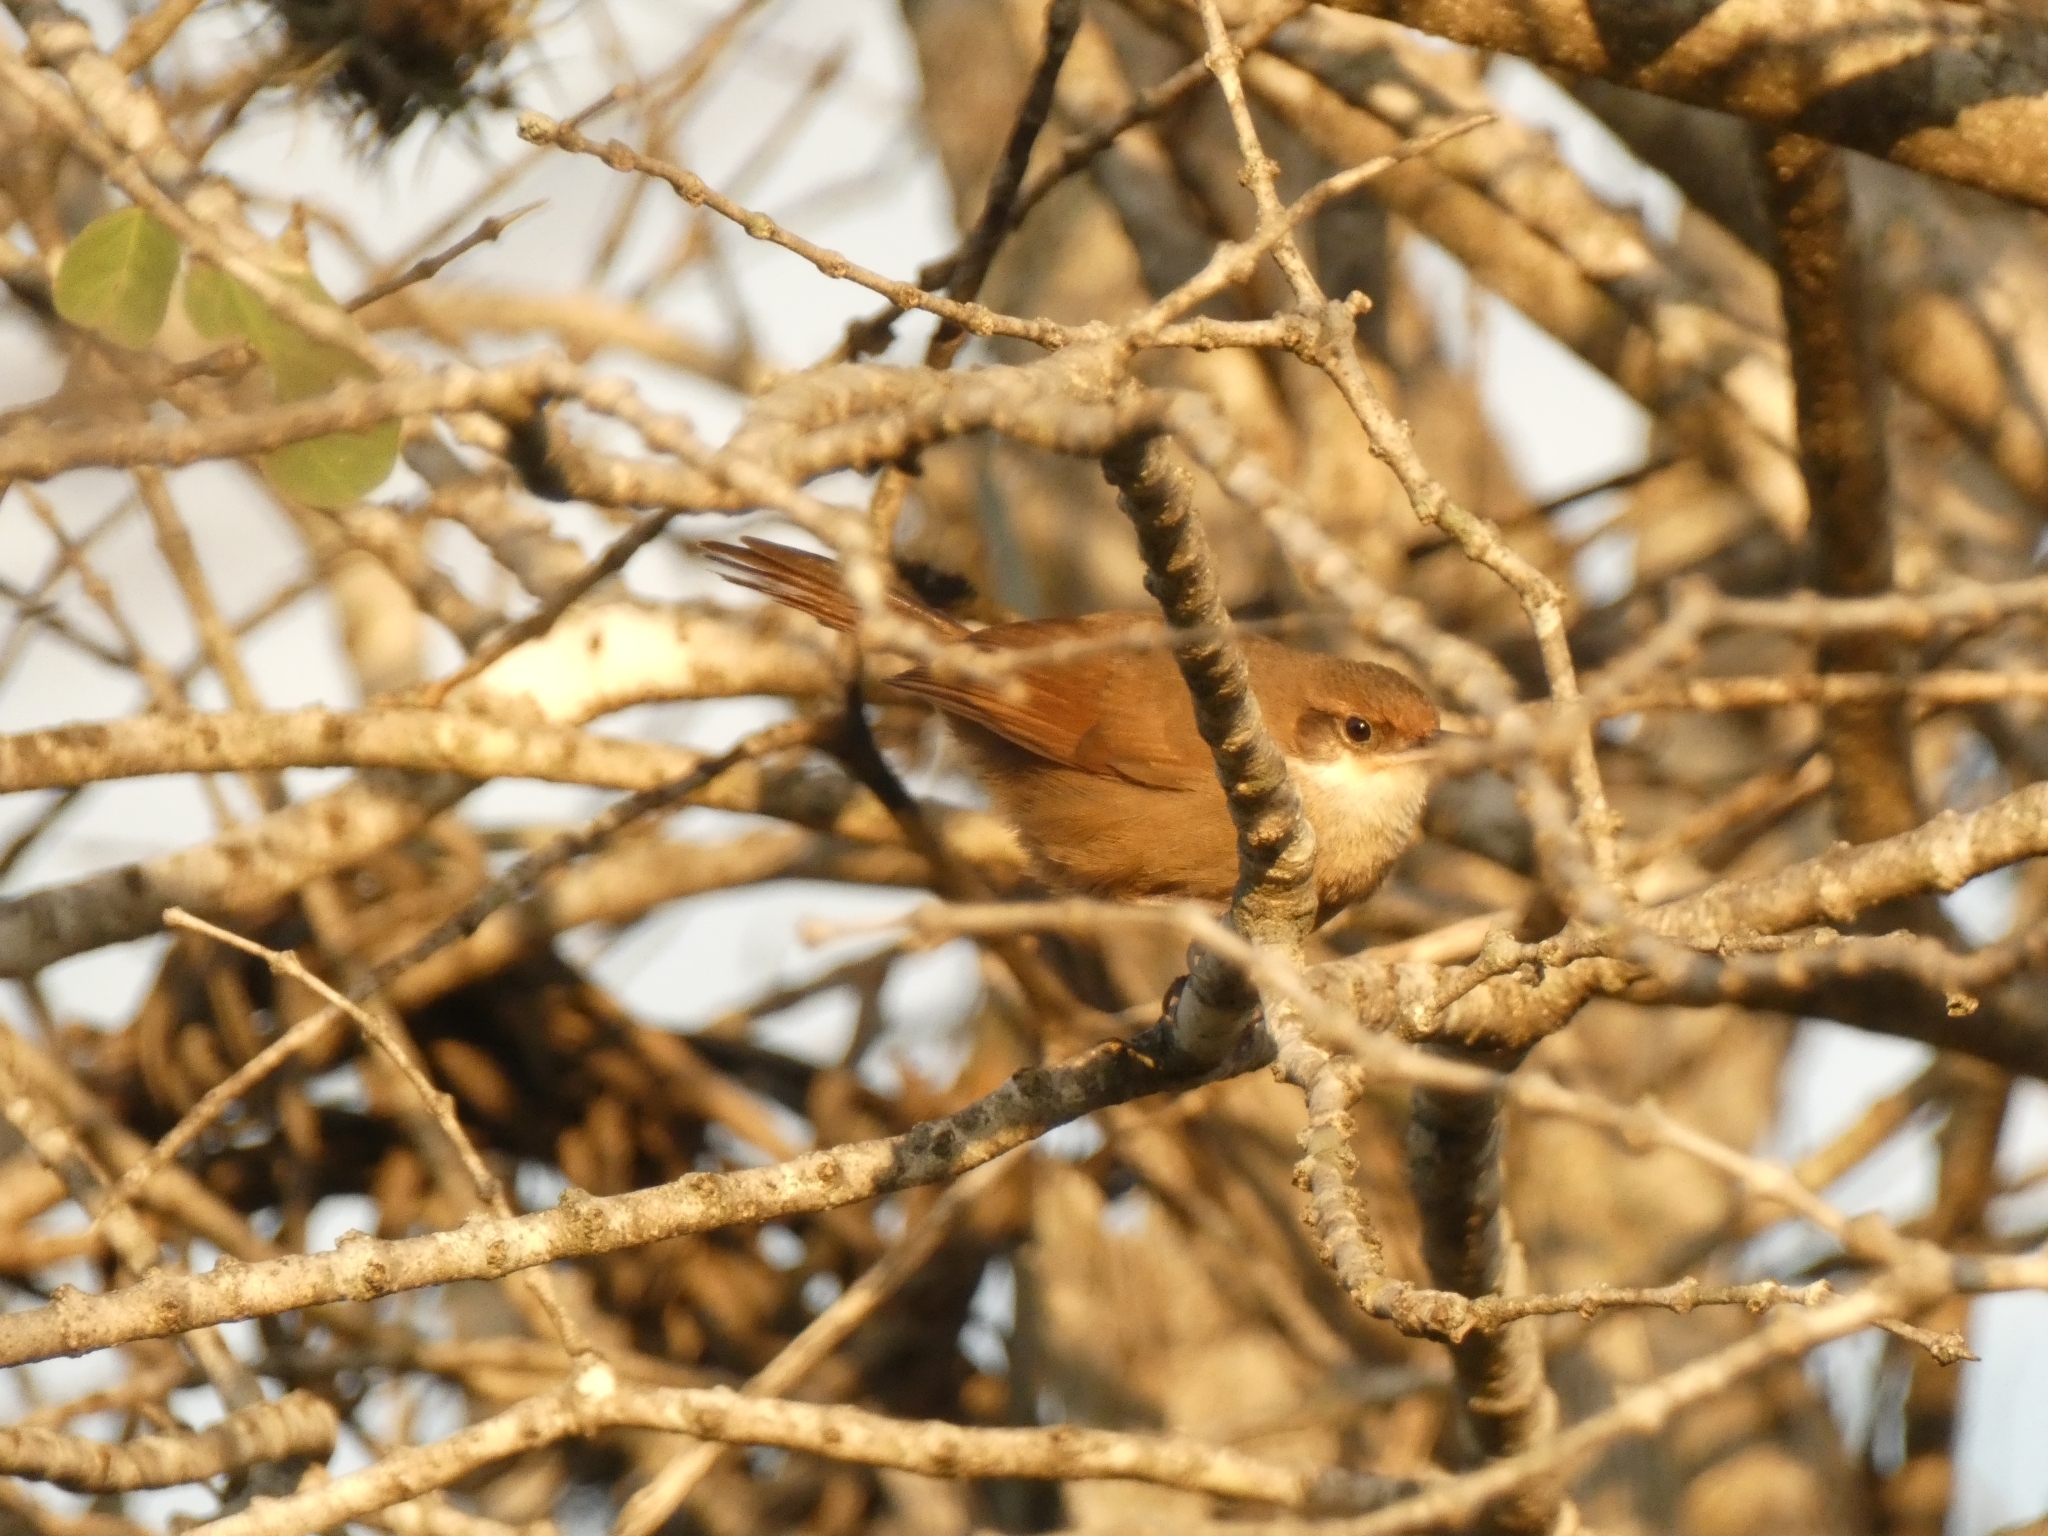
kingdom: Animalia
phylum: Chordata
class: Aves
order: Passeriformes
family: Furnariidae
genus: Upucerthia
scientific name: Upucerthia certhioides
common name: Chaco earthcreeper
